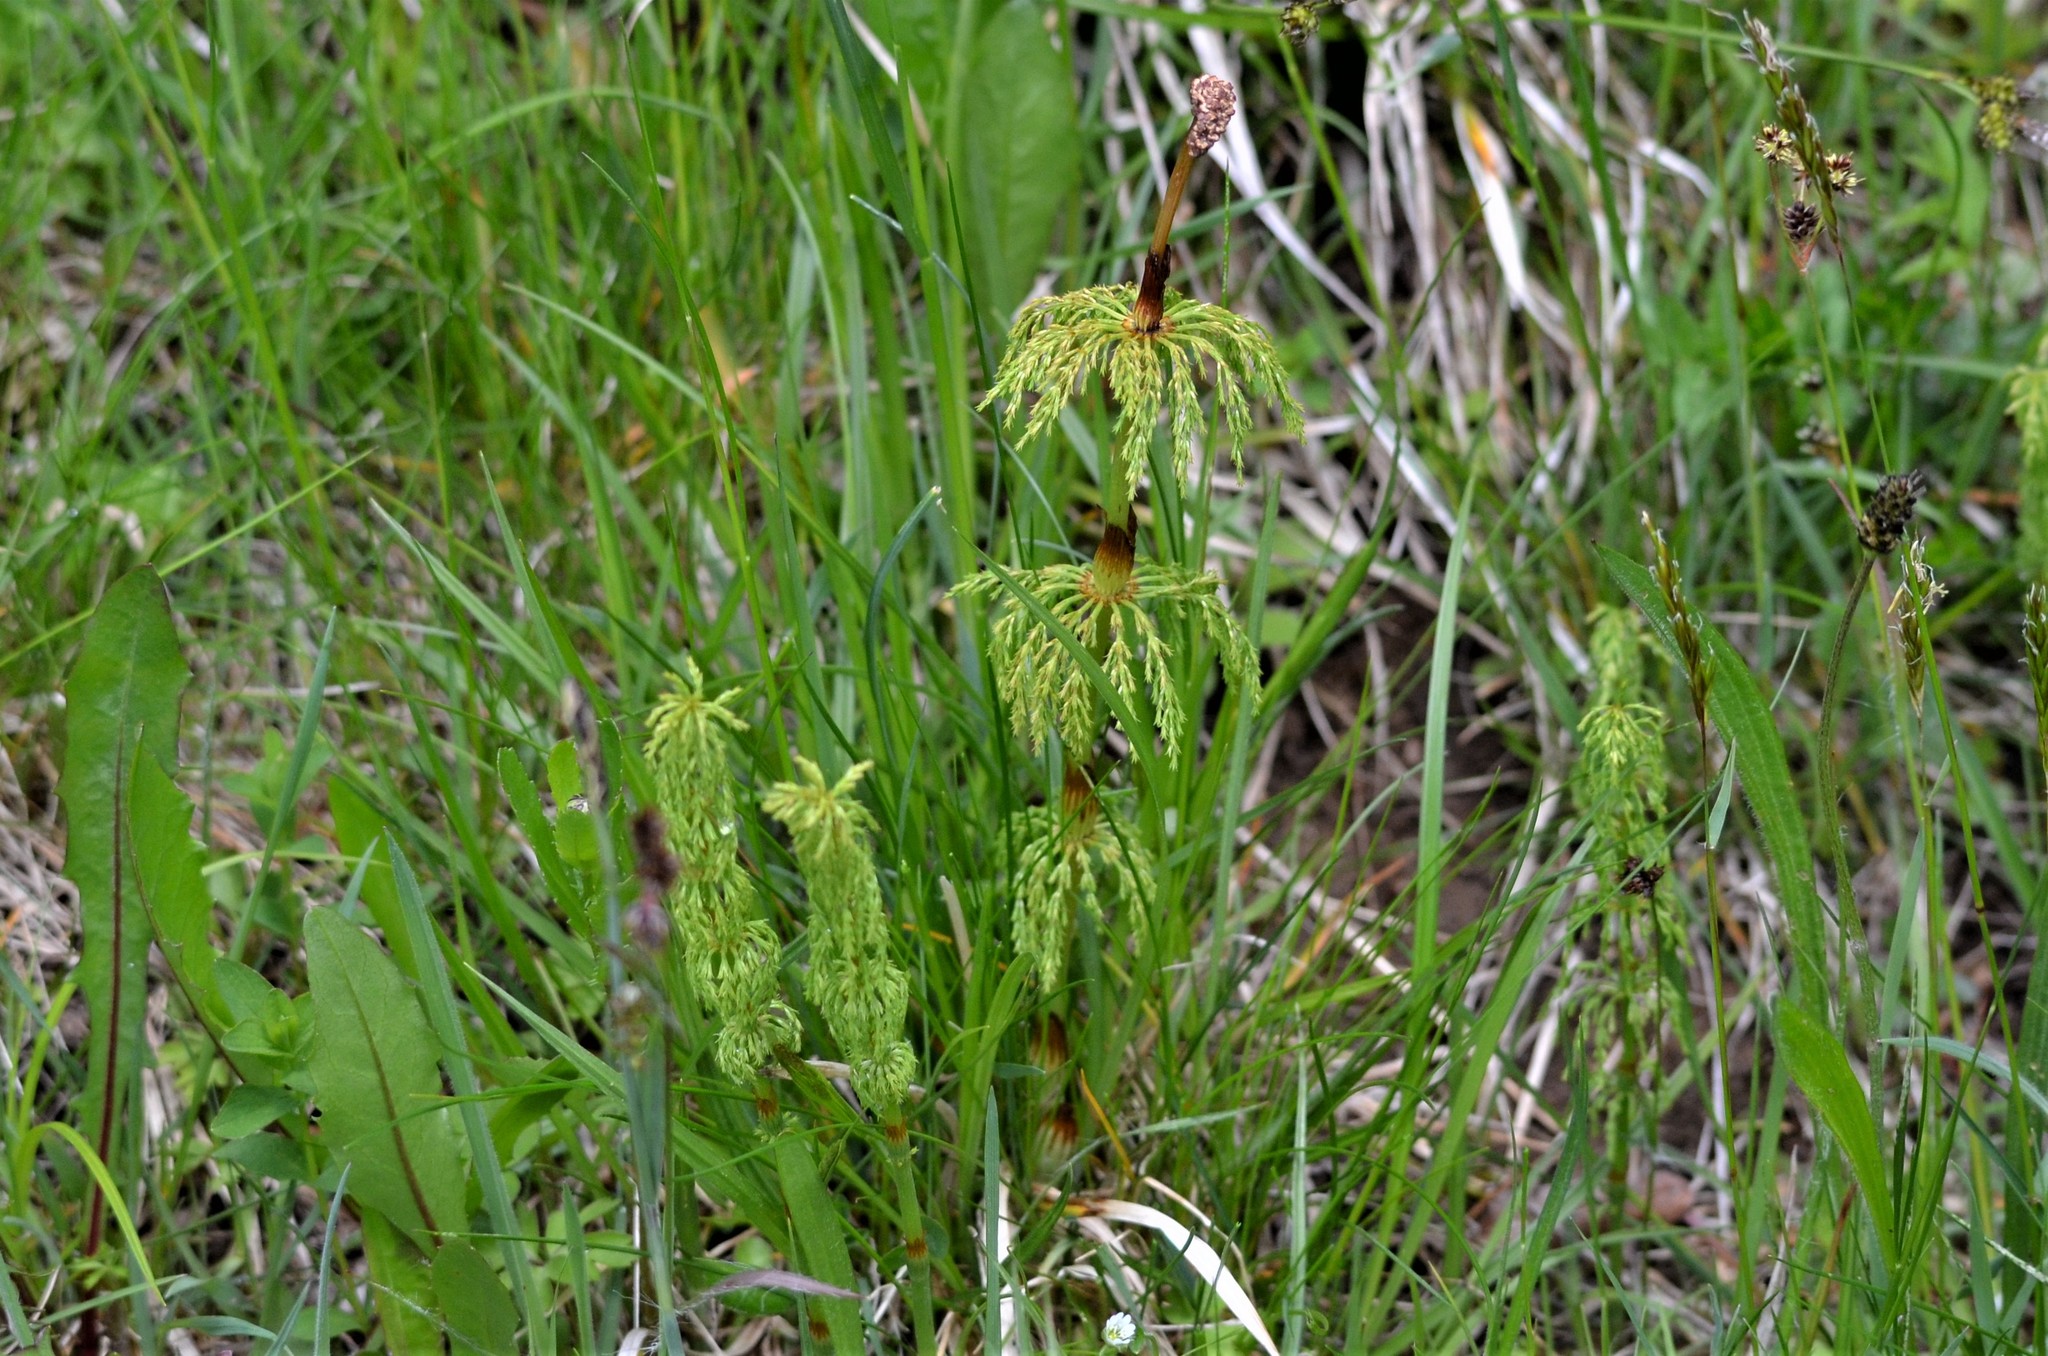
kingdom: Plantae
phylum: Tracheophyta
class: Polypodiopsida
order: Equisetales
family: Equisetaceae
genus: Equisetum
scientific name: Equisetum sylvaticum
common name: Wood horsetail
